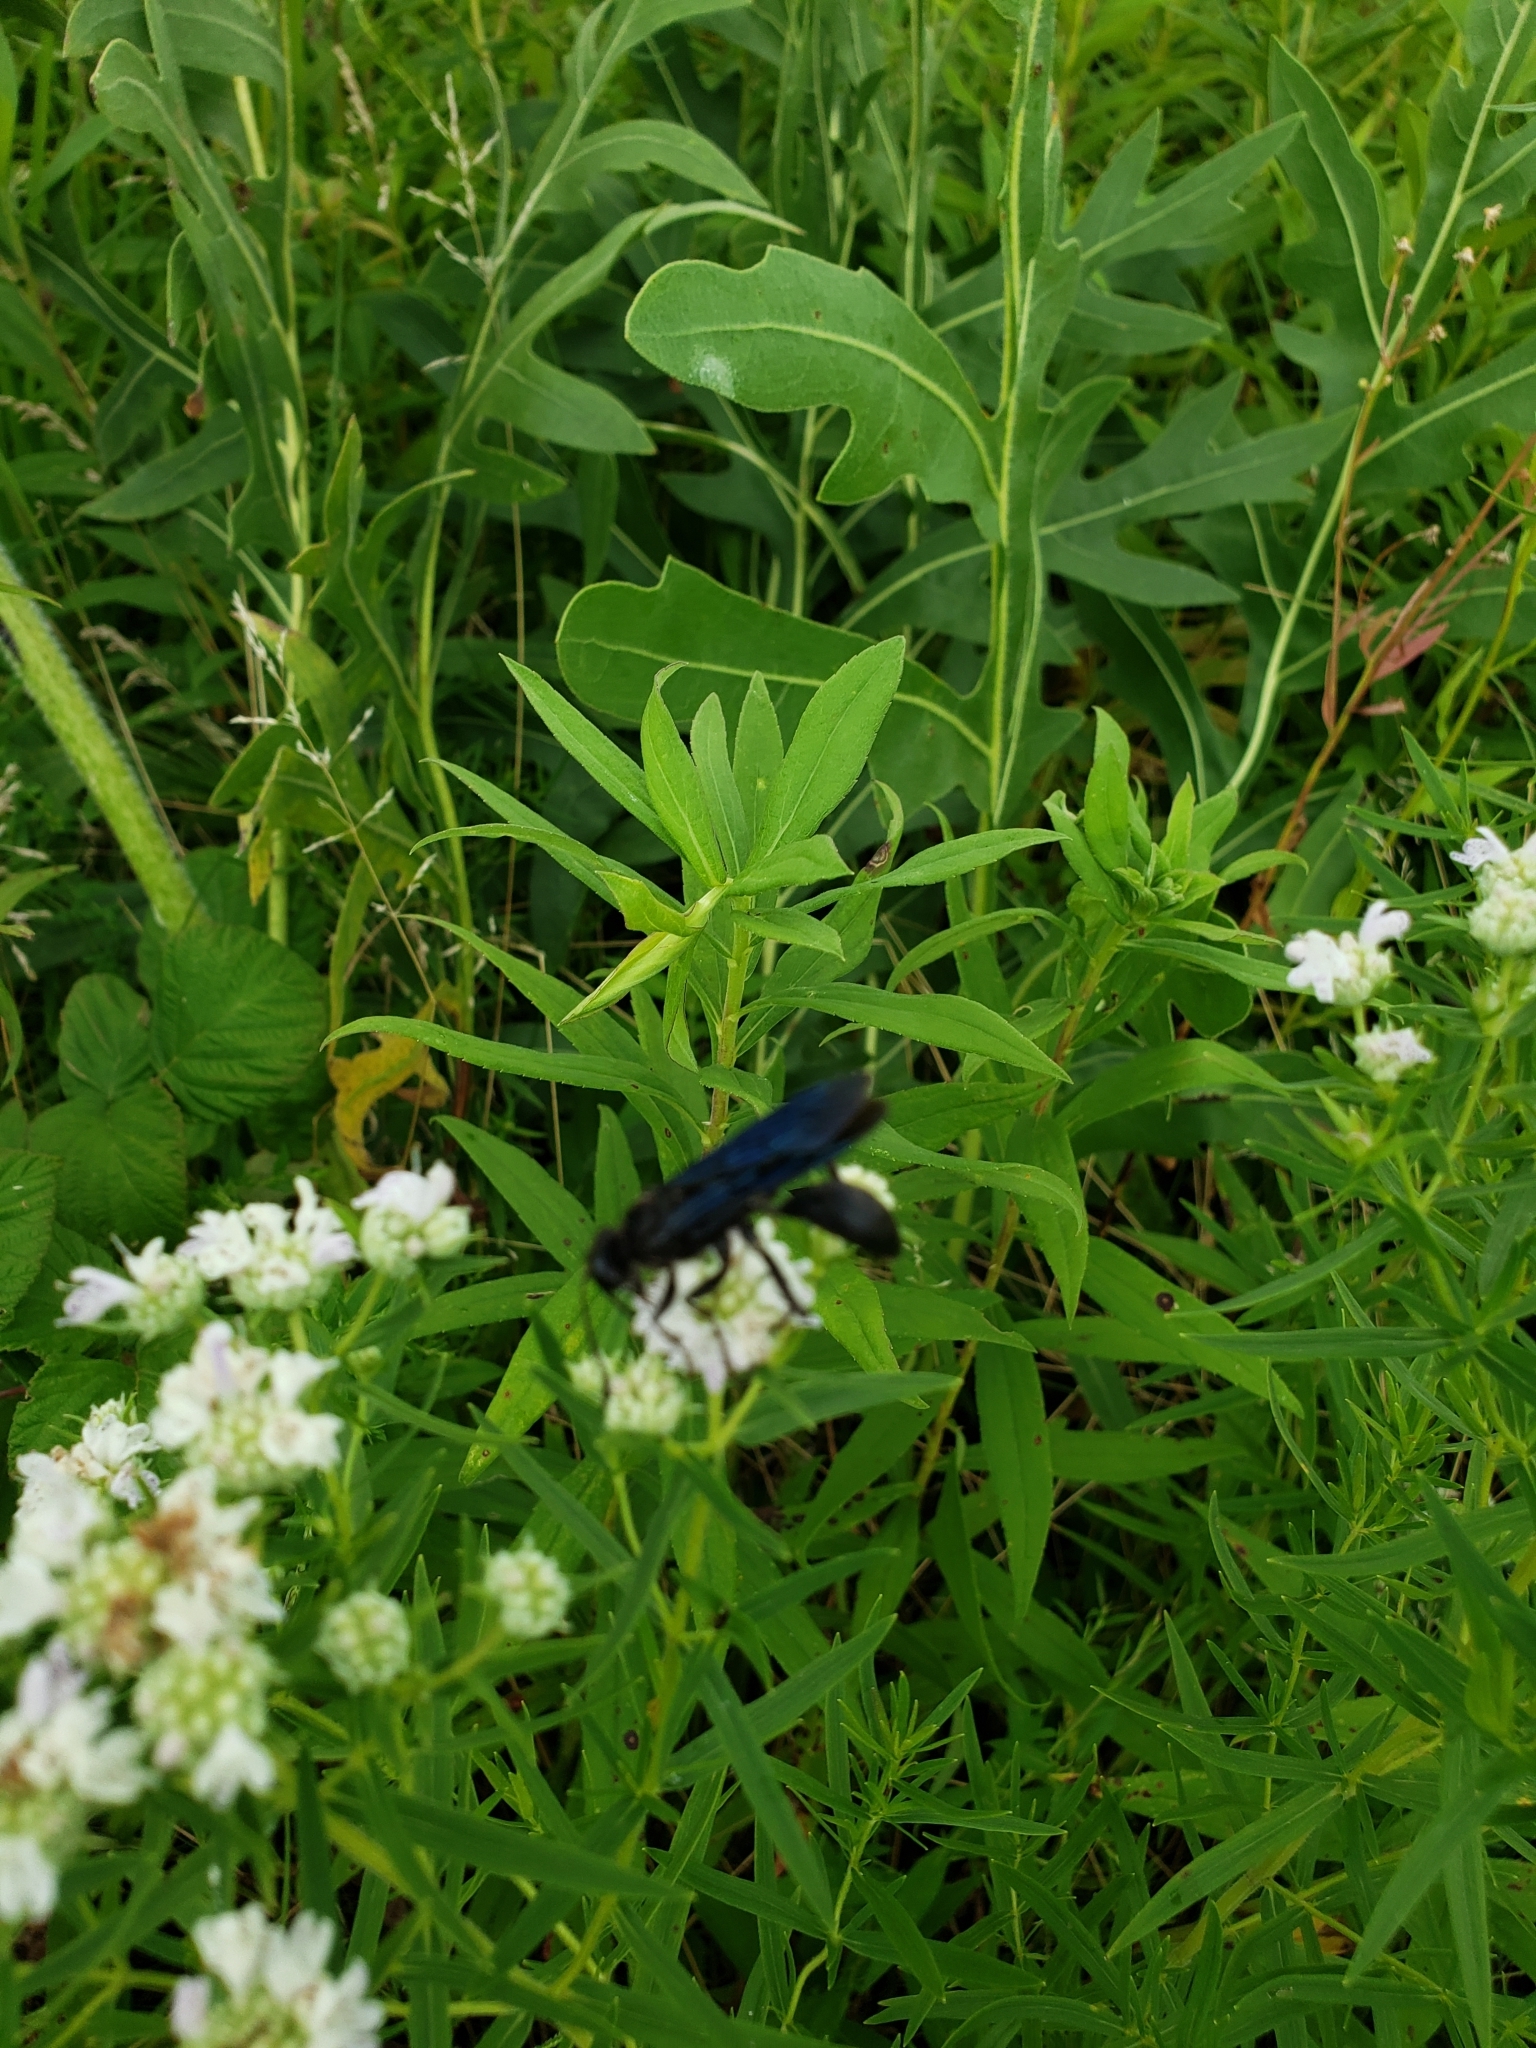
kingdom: Animalia
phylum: Arthropoda
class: Insecta
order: Hymenoptera
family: Sphecidae
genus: Sphex
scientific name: Sphex pensylvanicus
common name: Great black digger wasp
